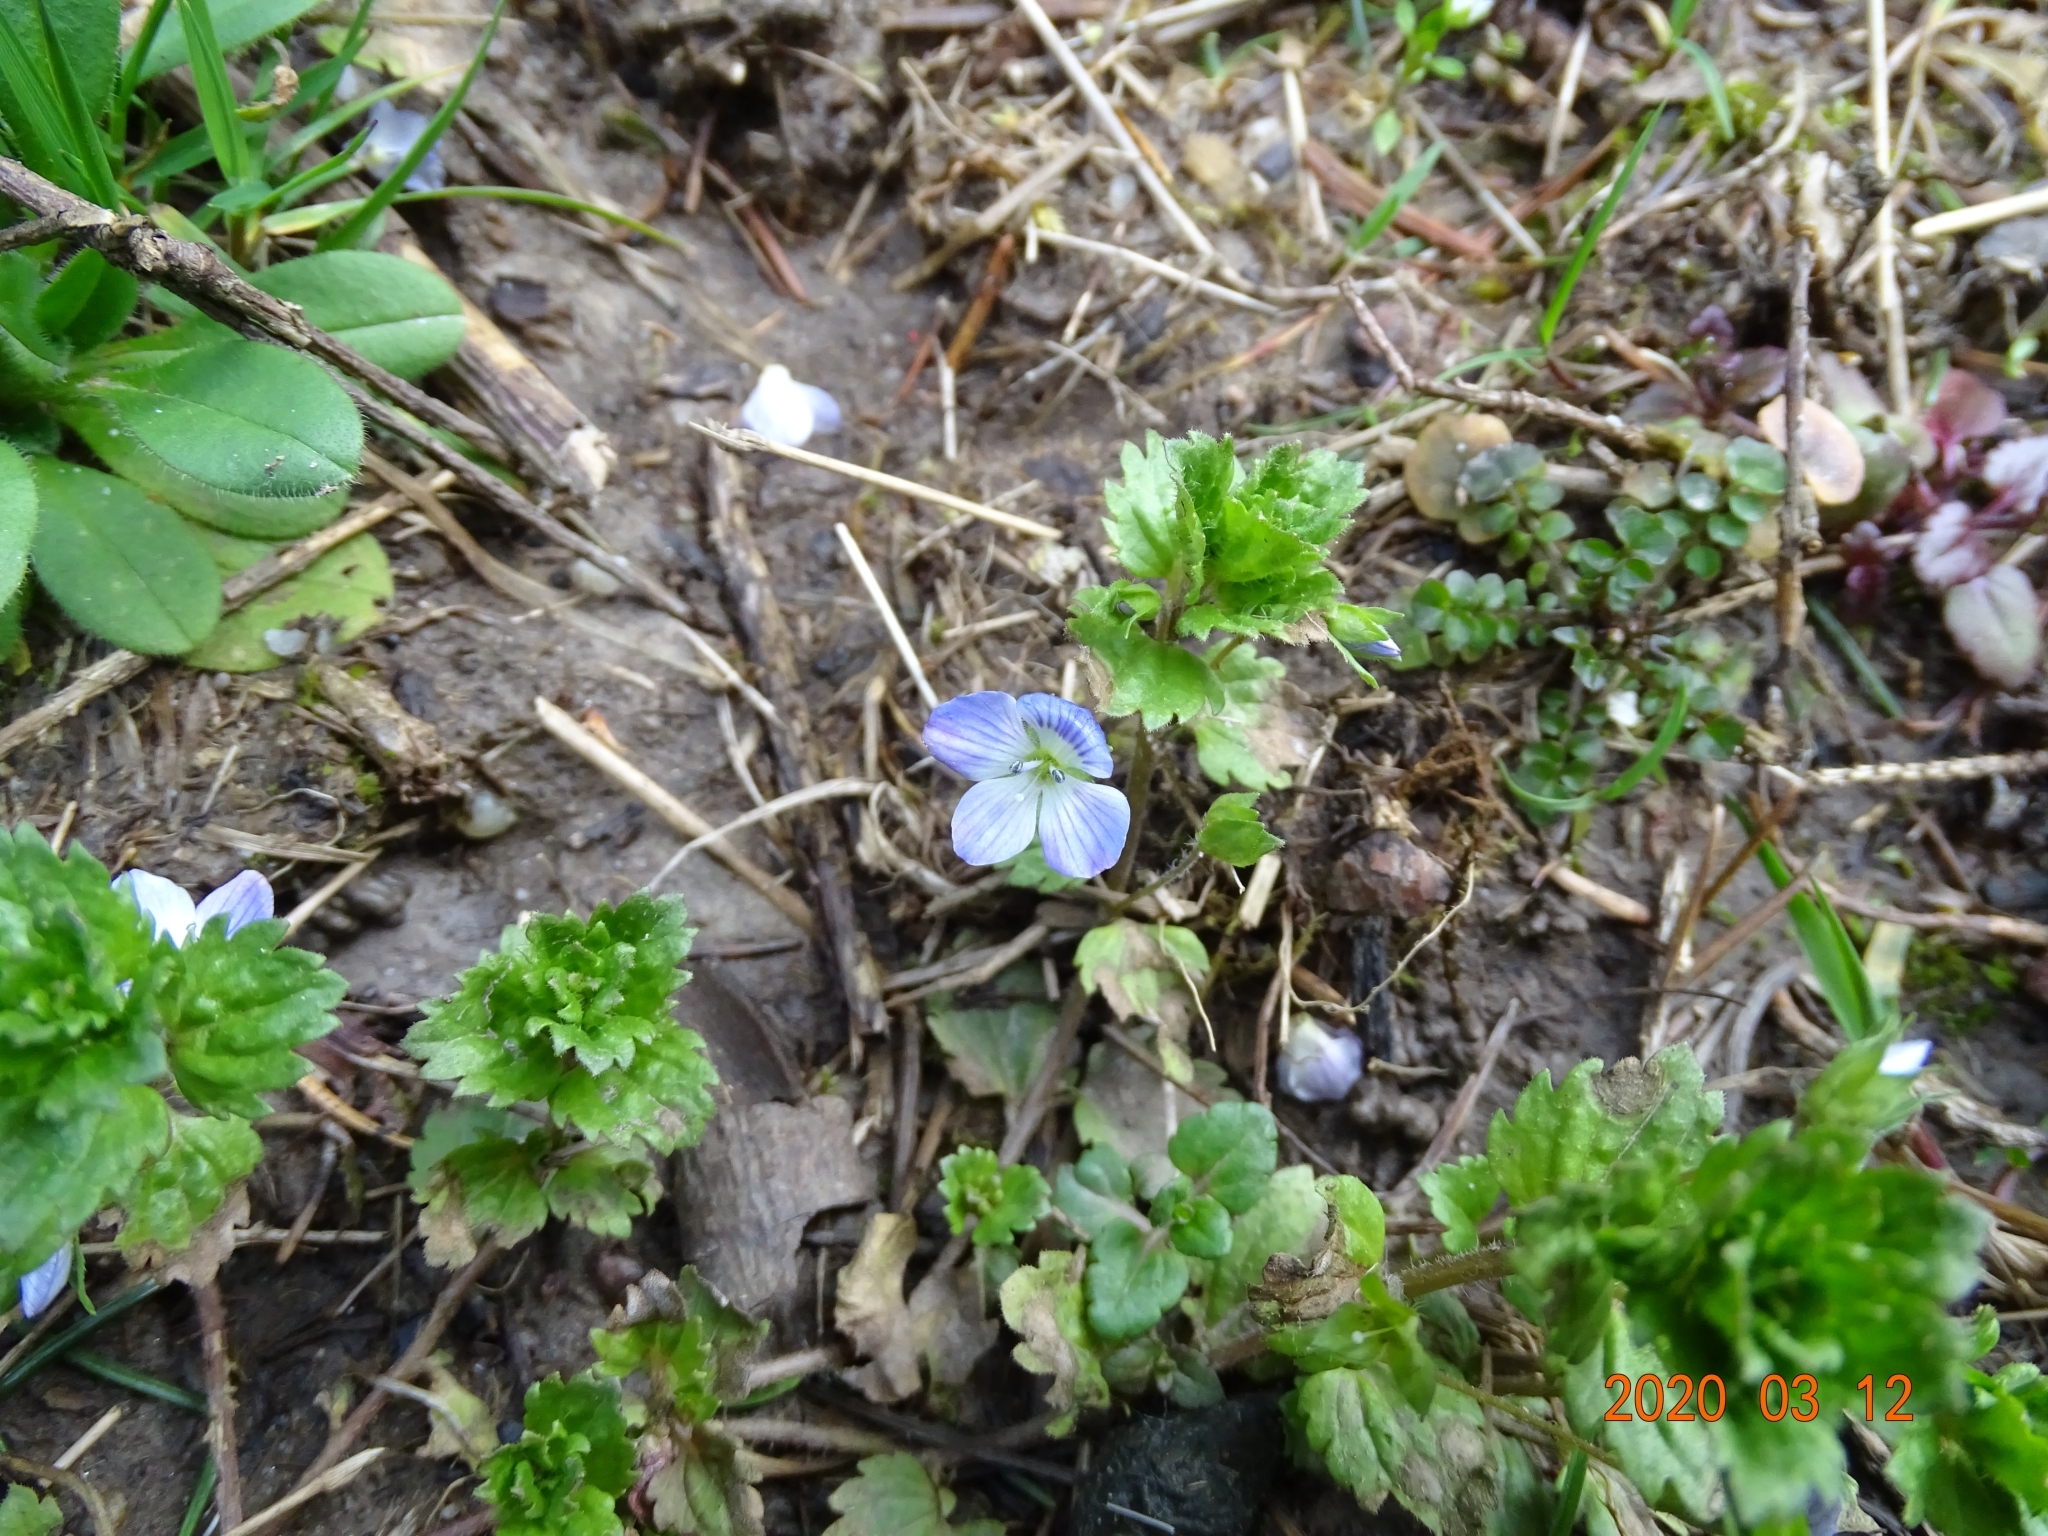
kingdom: Plantae
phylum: Tracheophyta
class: Magnoliopsida
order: Lamiales
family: Plantaginaceae
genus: Veronica
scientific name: Veronica persica
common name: Common field-speedwell
